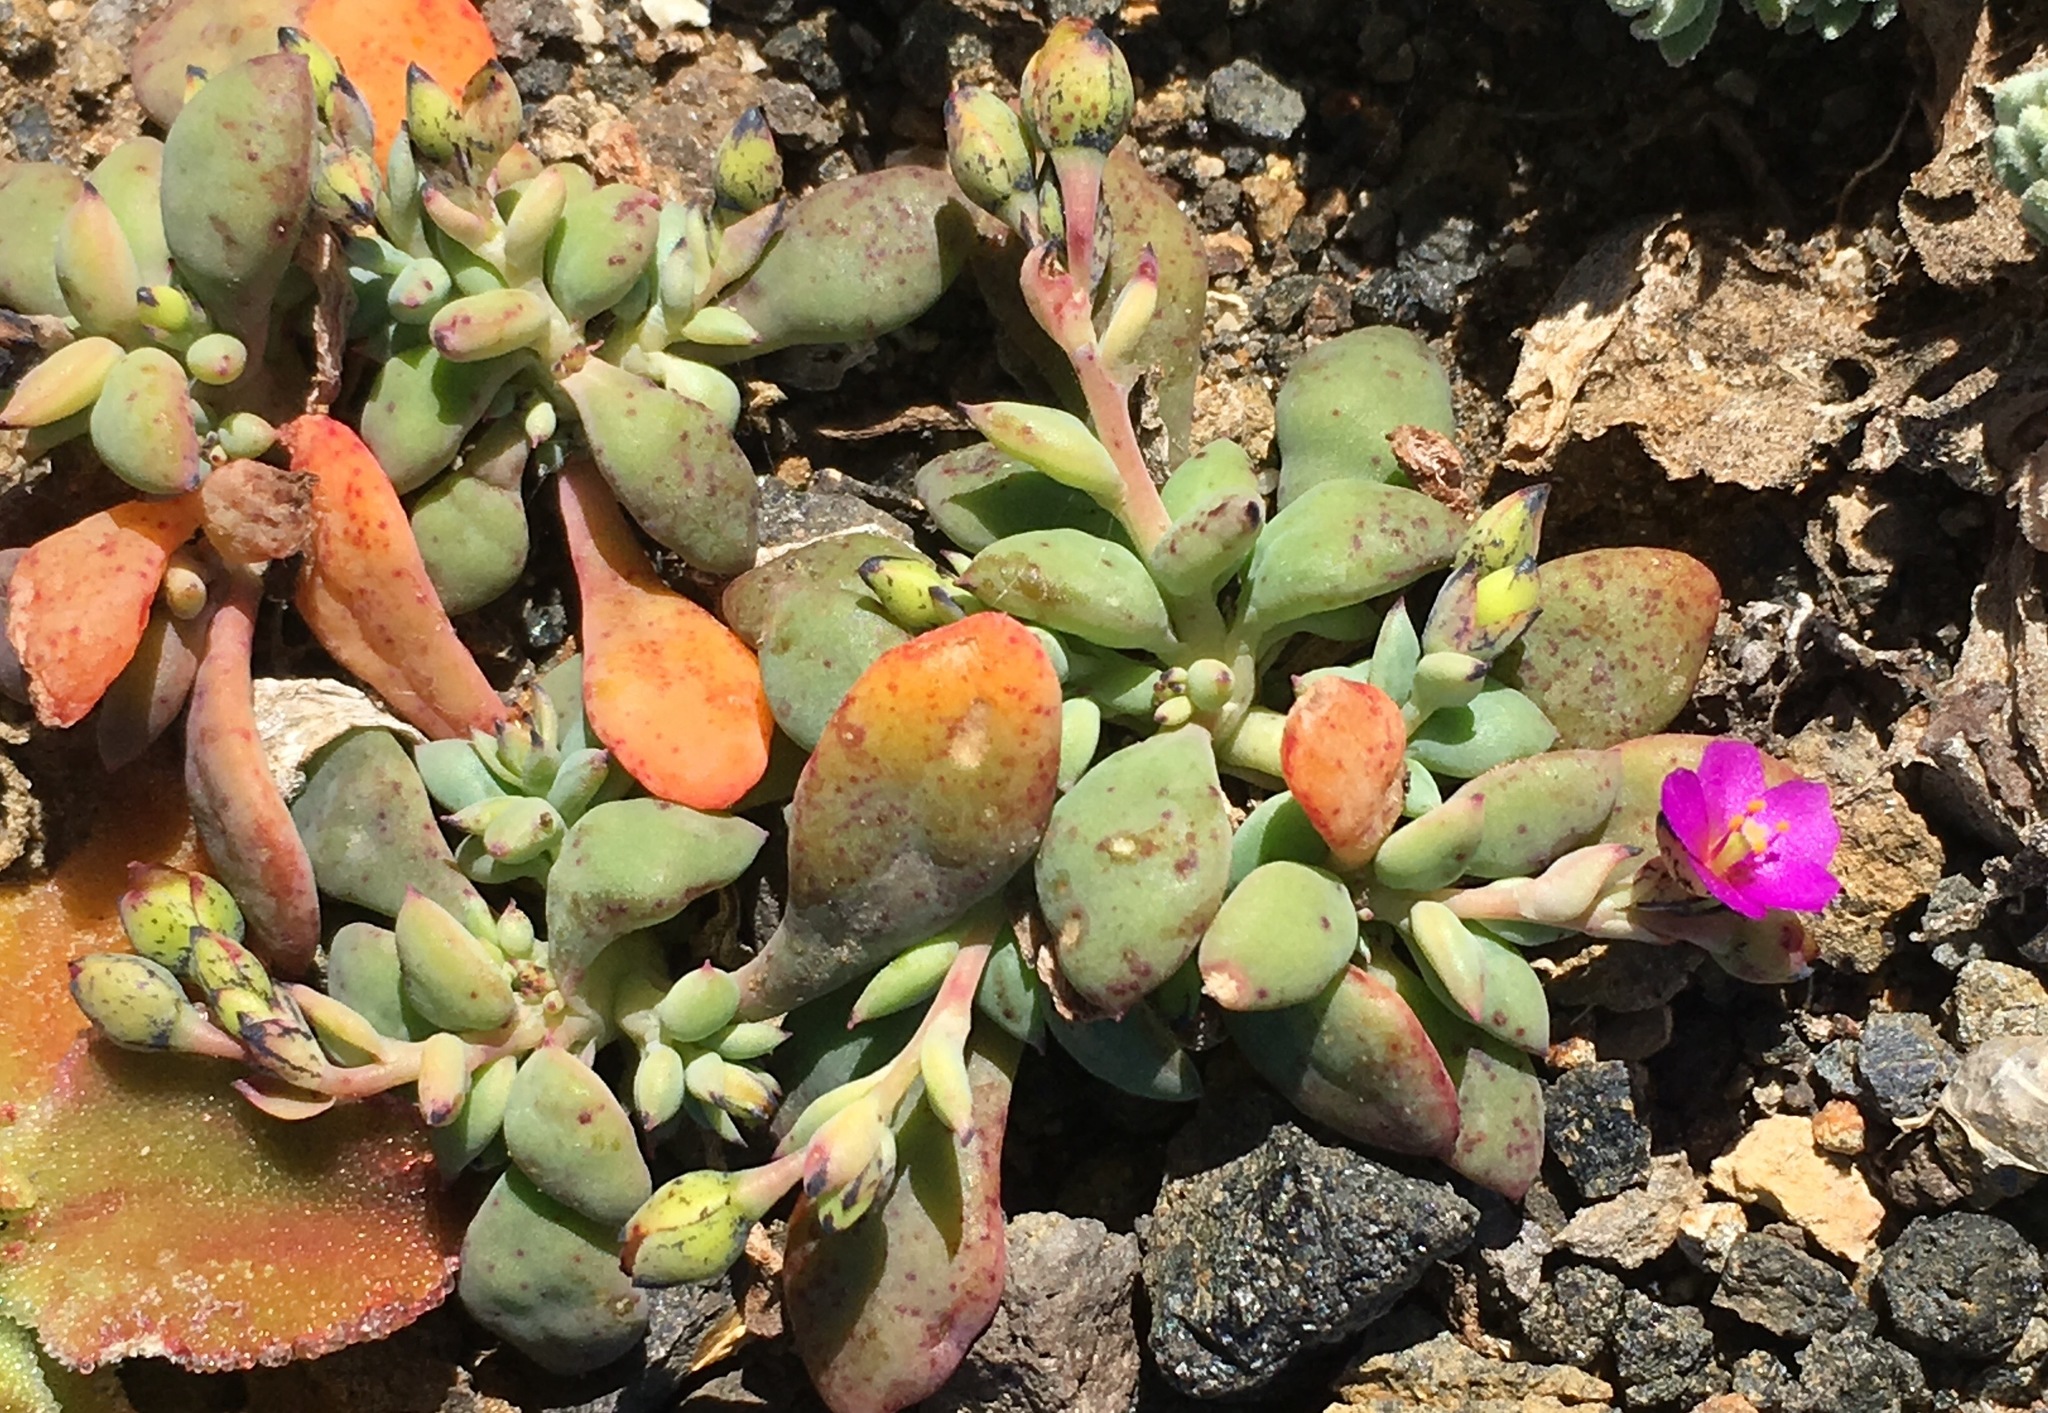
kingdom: Plantae
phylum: Tracheophyta
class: Magnoliopsida
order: Caryophyllales
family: Montiaceae
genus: Cistanthe
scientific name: Cistanthe maritima
